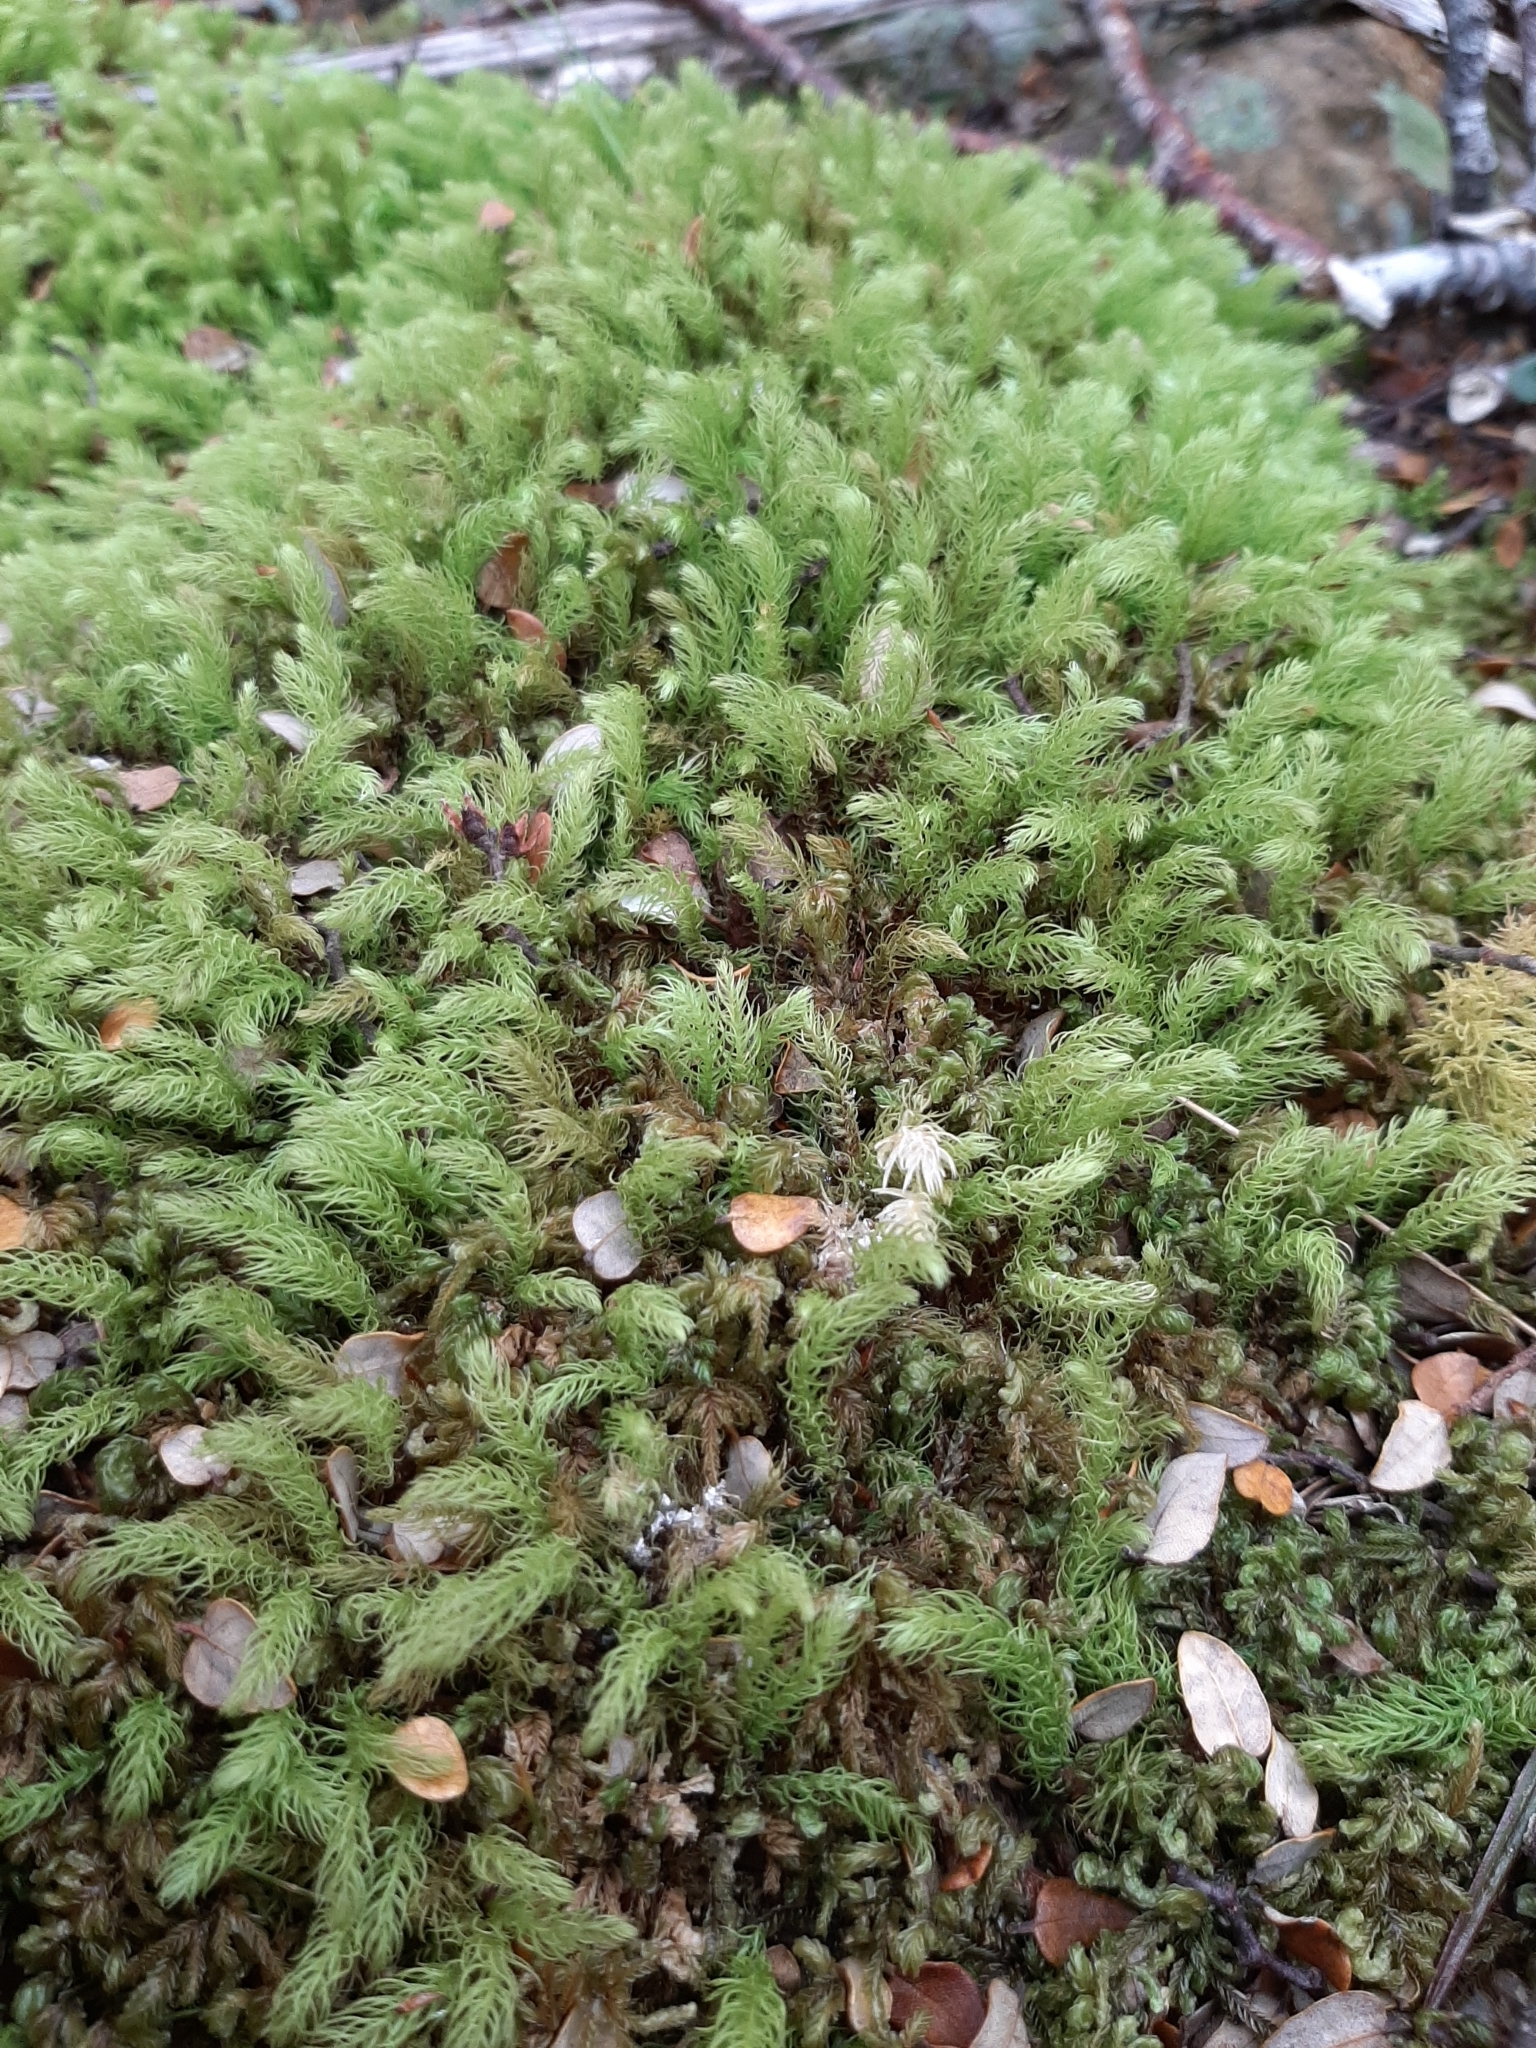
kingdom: Plantae
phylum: Bryophyta
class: Bryopsida
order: Aulacomniales
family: Aulacomniaceae
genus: Hymenodontopsis
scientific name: Hymenodontopsis mnioides
